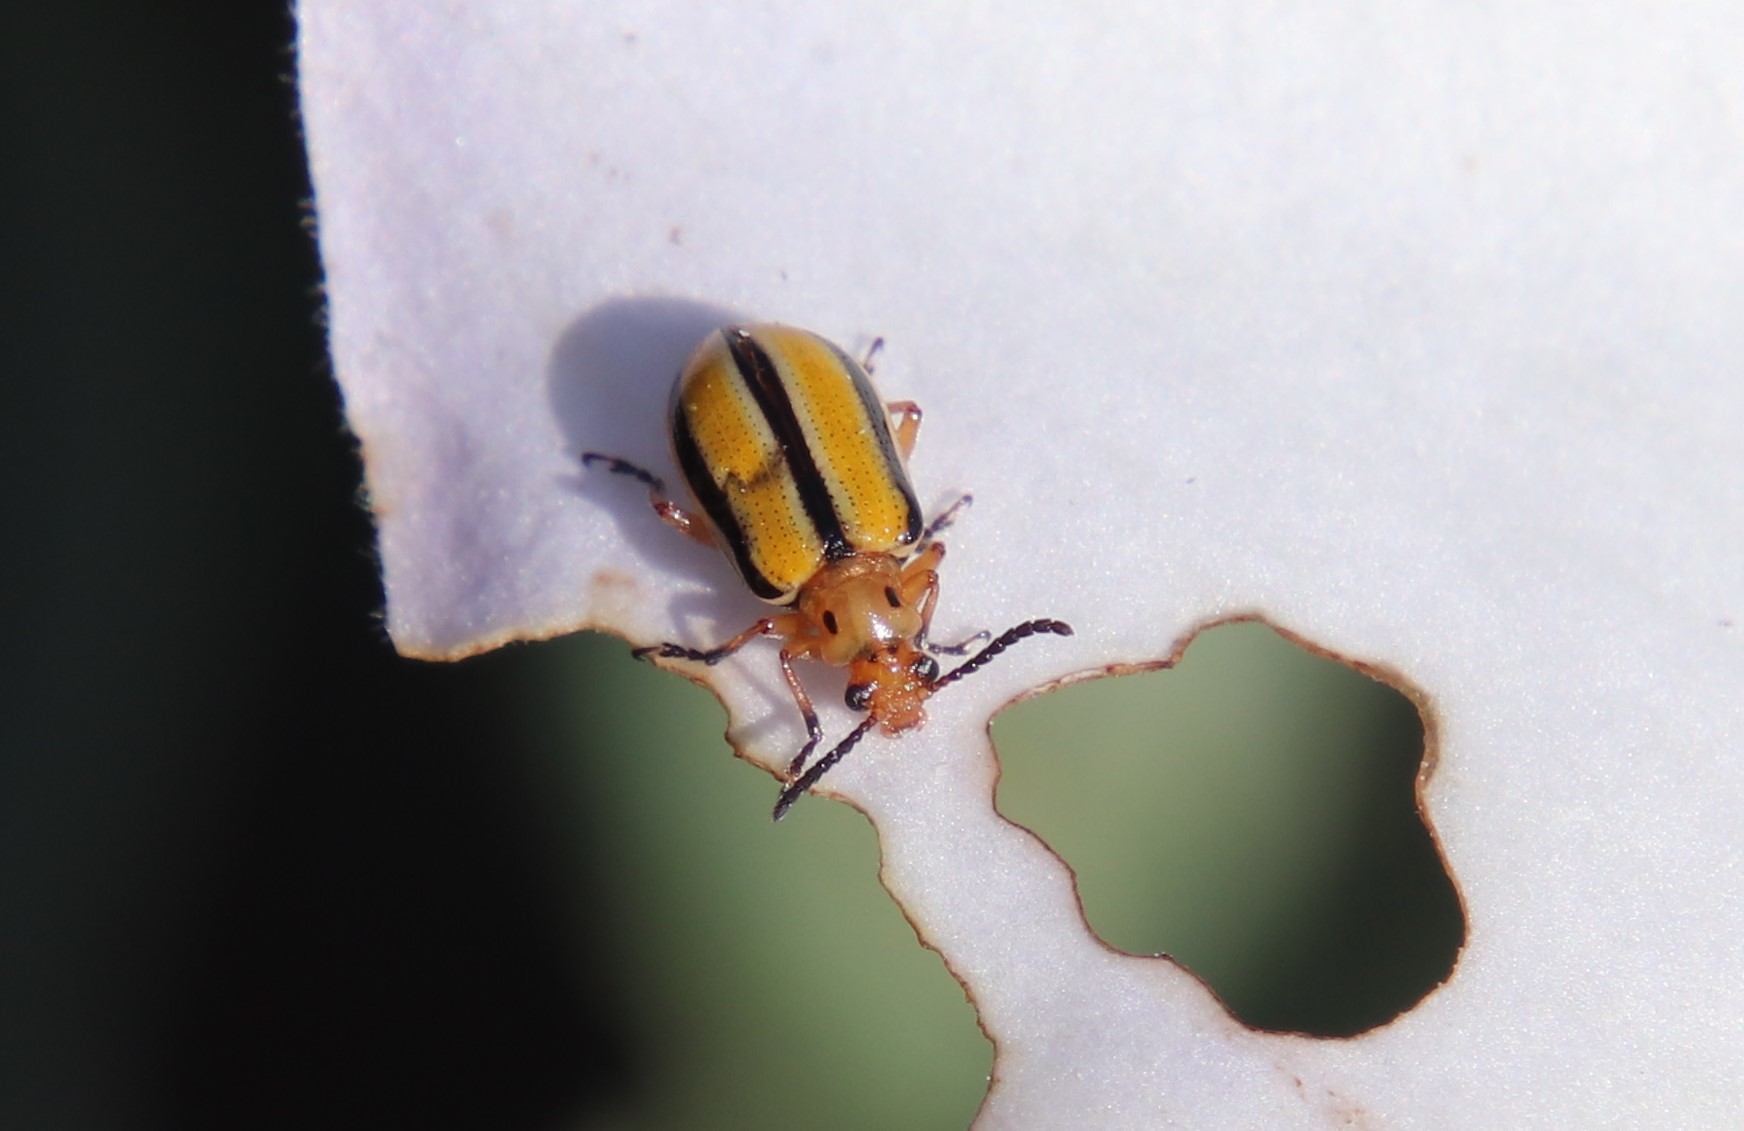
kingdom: Animalia
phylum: Arthropoda
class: Insecta
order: Coleoptera
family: Chrysomelidae
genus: Lema
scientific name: Lema daturaphila
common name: Leaf beetle
